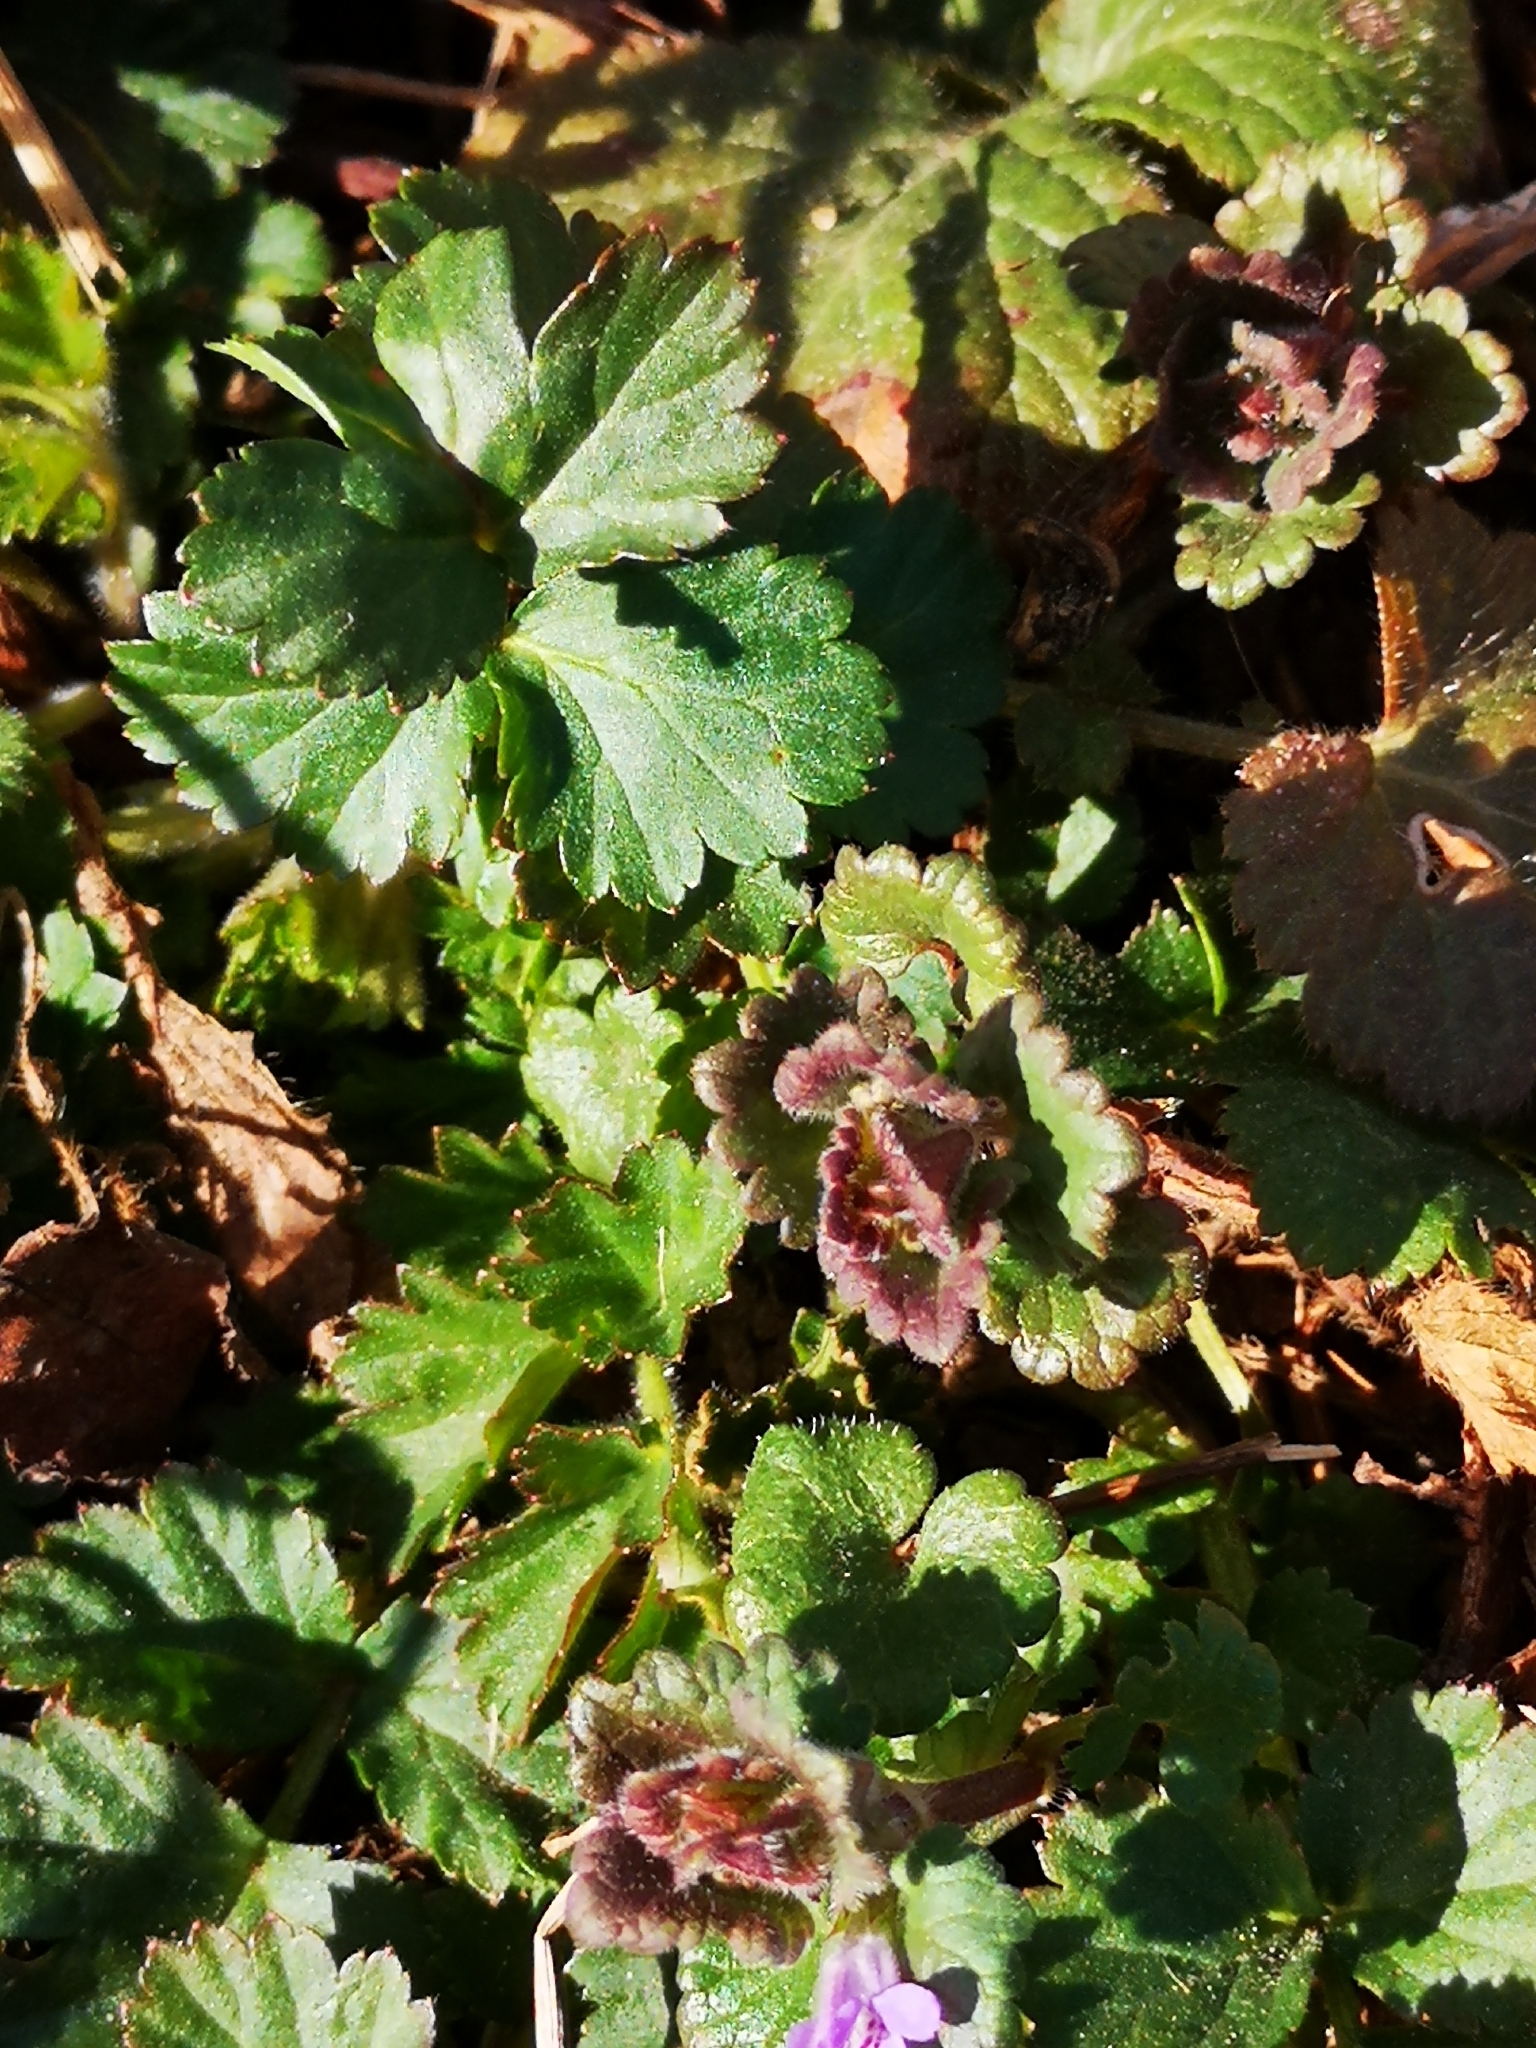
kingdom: Plantae
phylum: Tracheophyta
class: Magnoliopsida
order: Lamiales
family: Lamiaceae
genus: Glechoma
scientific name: Glechoma hederacea
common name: Ground ivy
